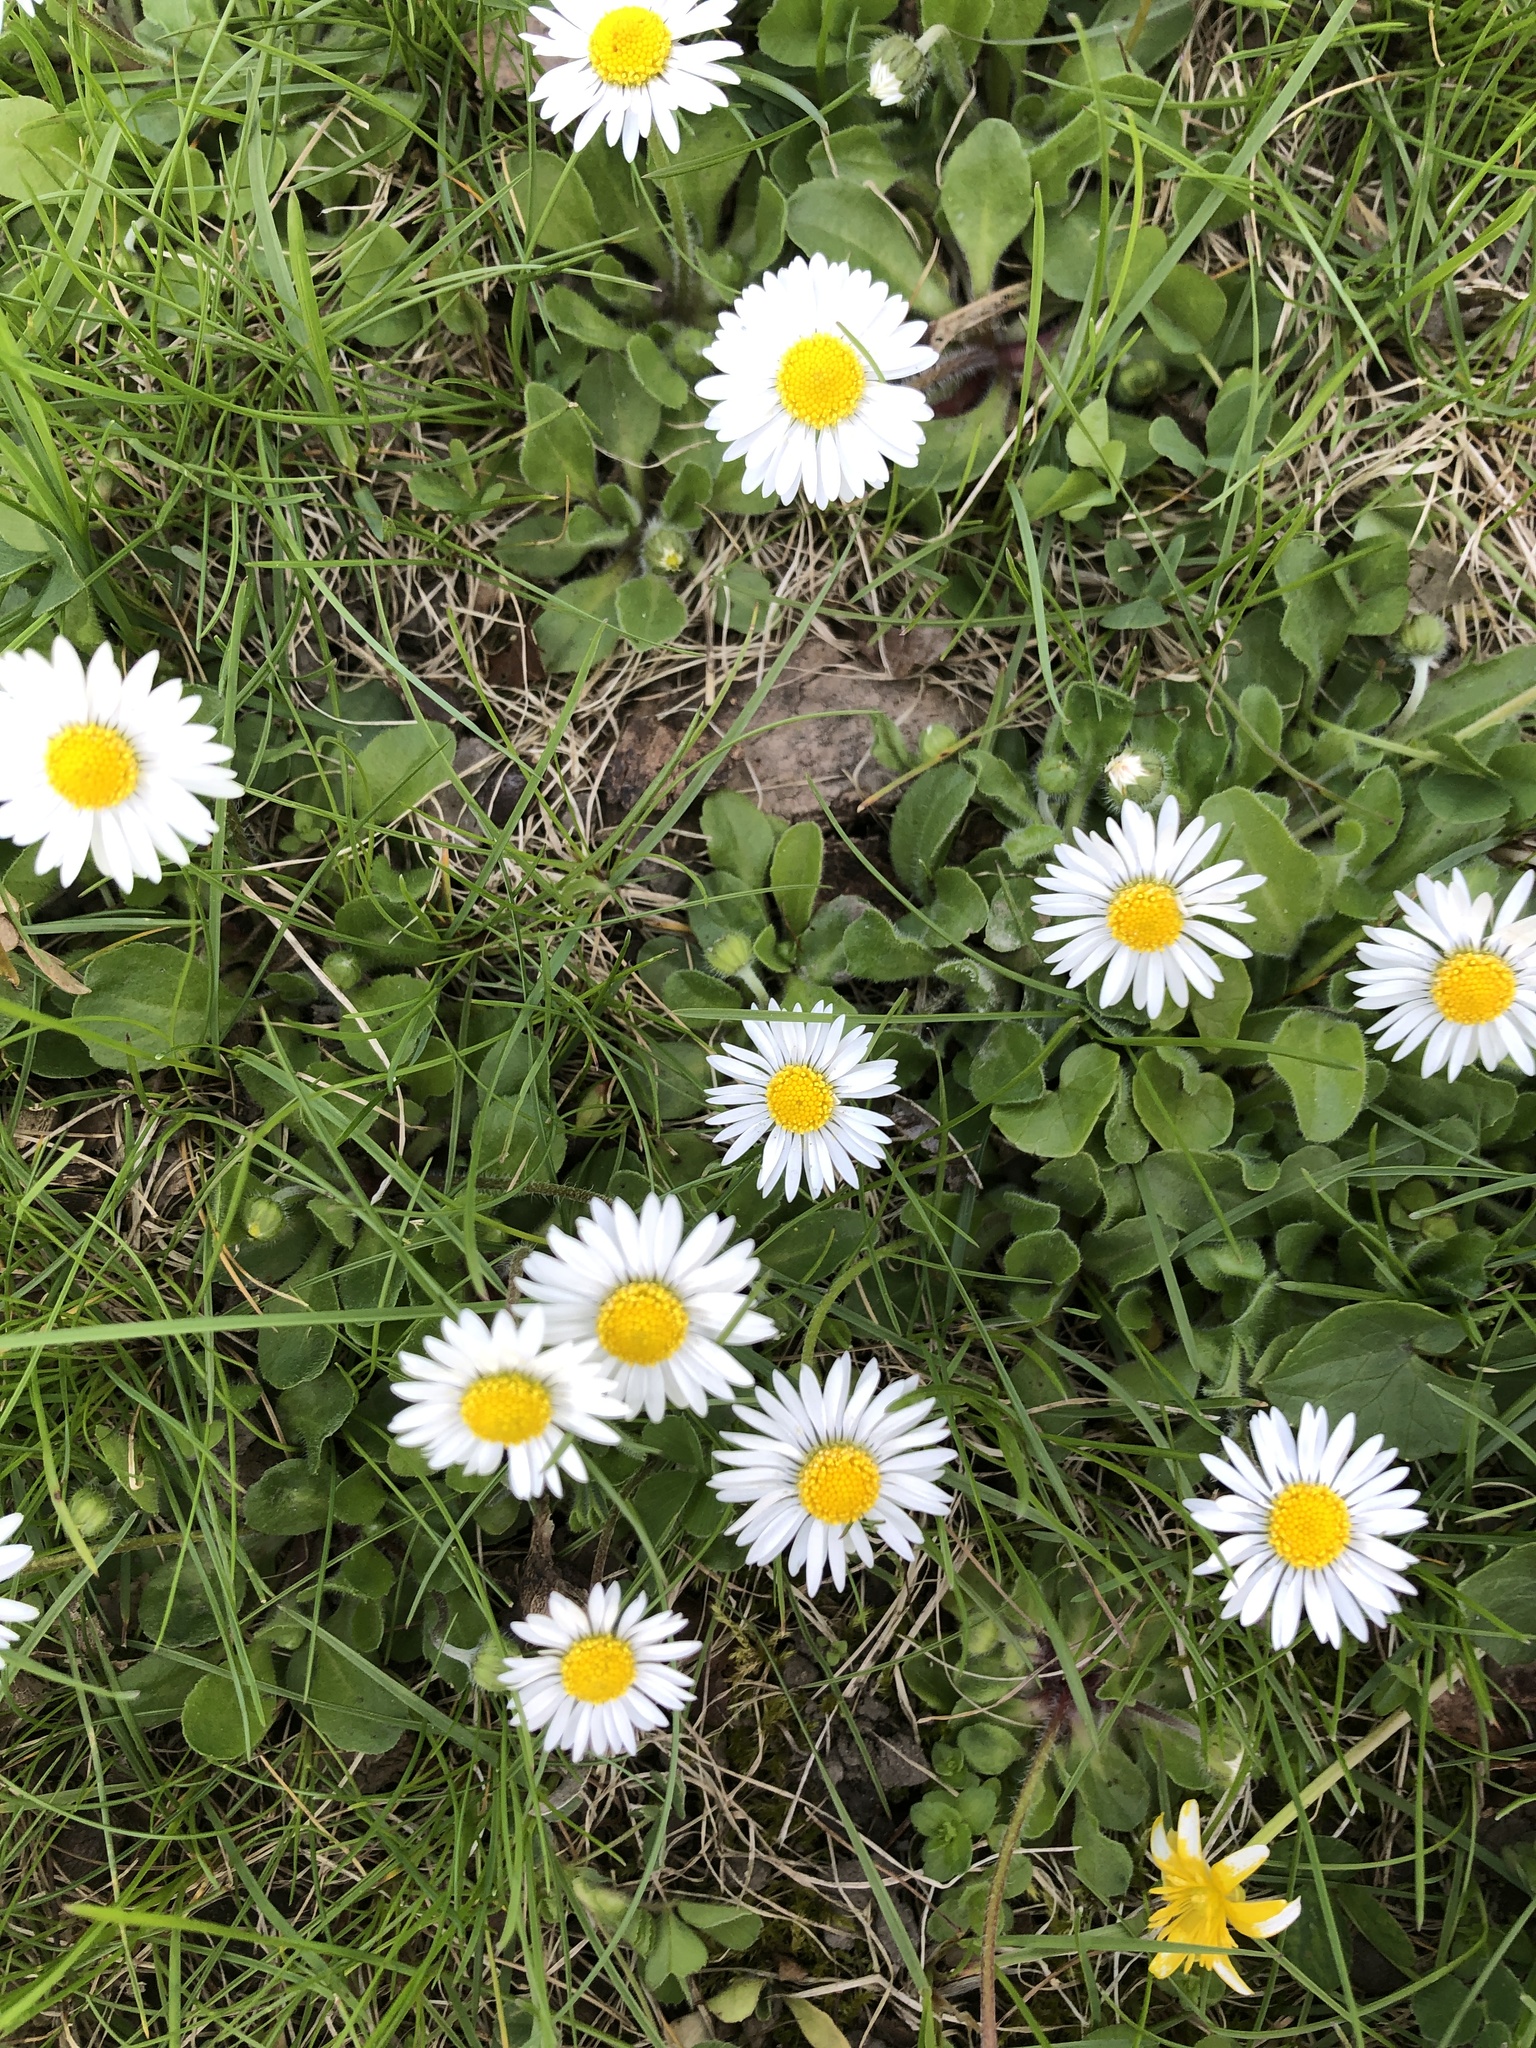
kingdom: Plantae
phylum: Tracheophyta
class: Magnoliopsida
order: Asterales
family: Asteraceae
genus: Bellis
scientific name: Bellis perennis
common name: Lawndaisy
